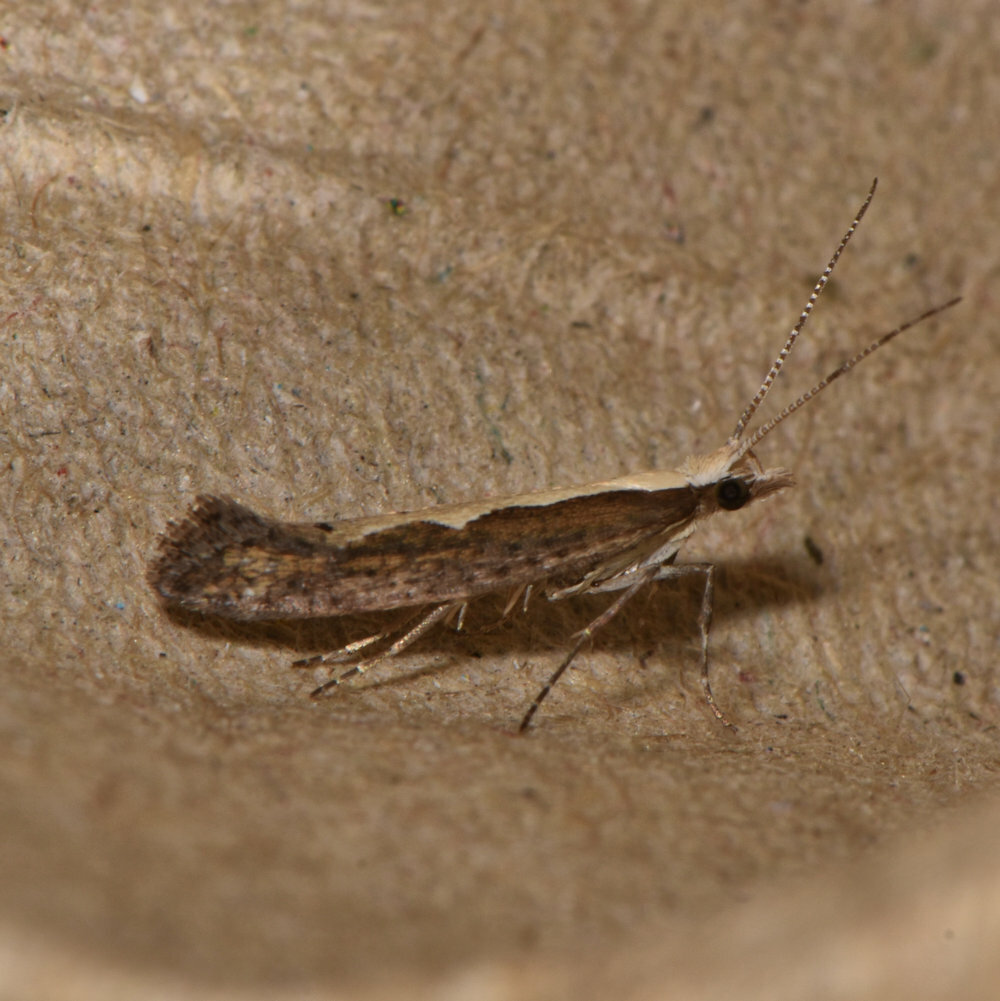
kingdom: Animalia
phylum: Arthropoda
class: Insecta
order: Lepidoptera
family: Plutellidae
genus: Plutella
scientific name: Plutella xylostella
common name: Diamond-back moth
